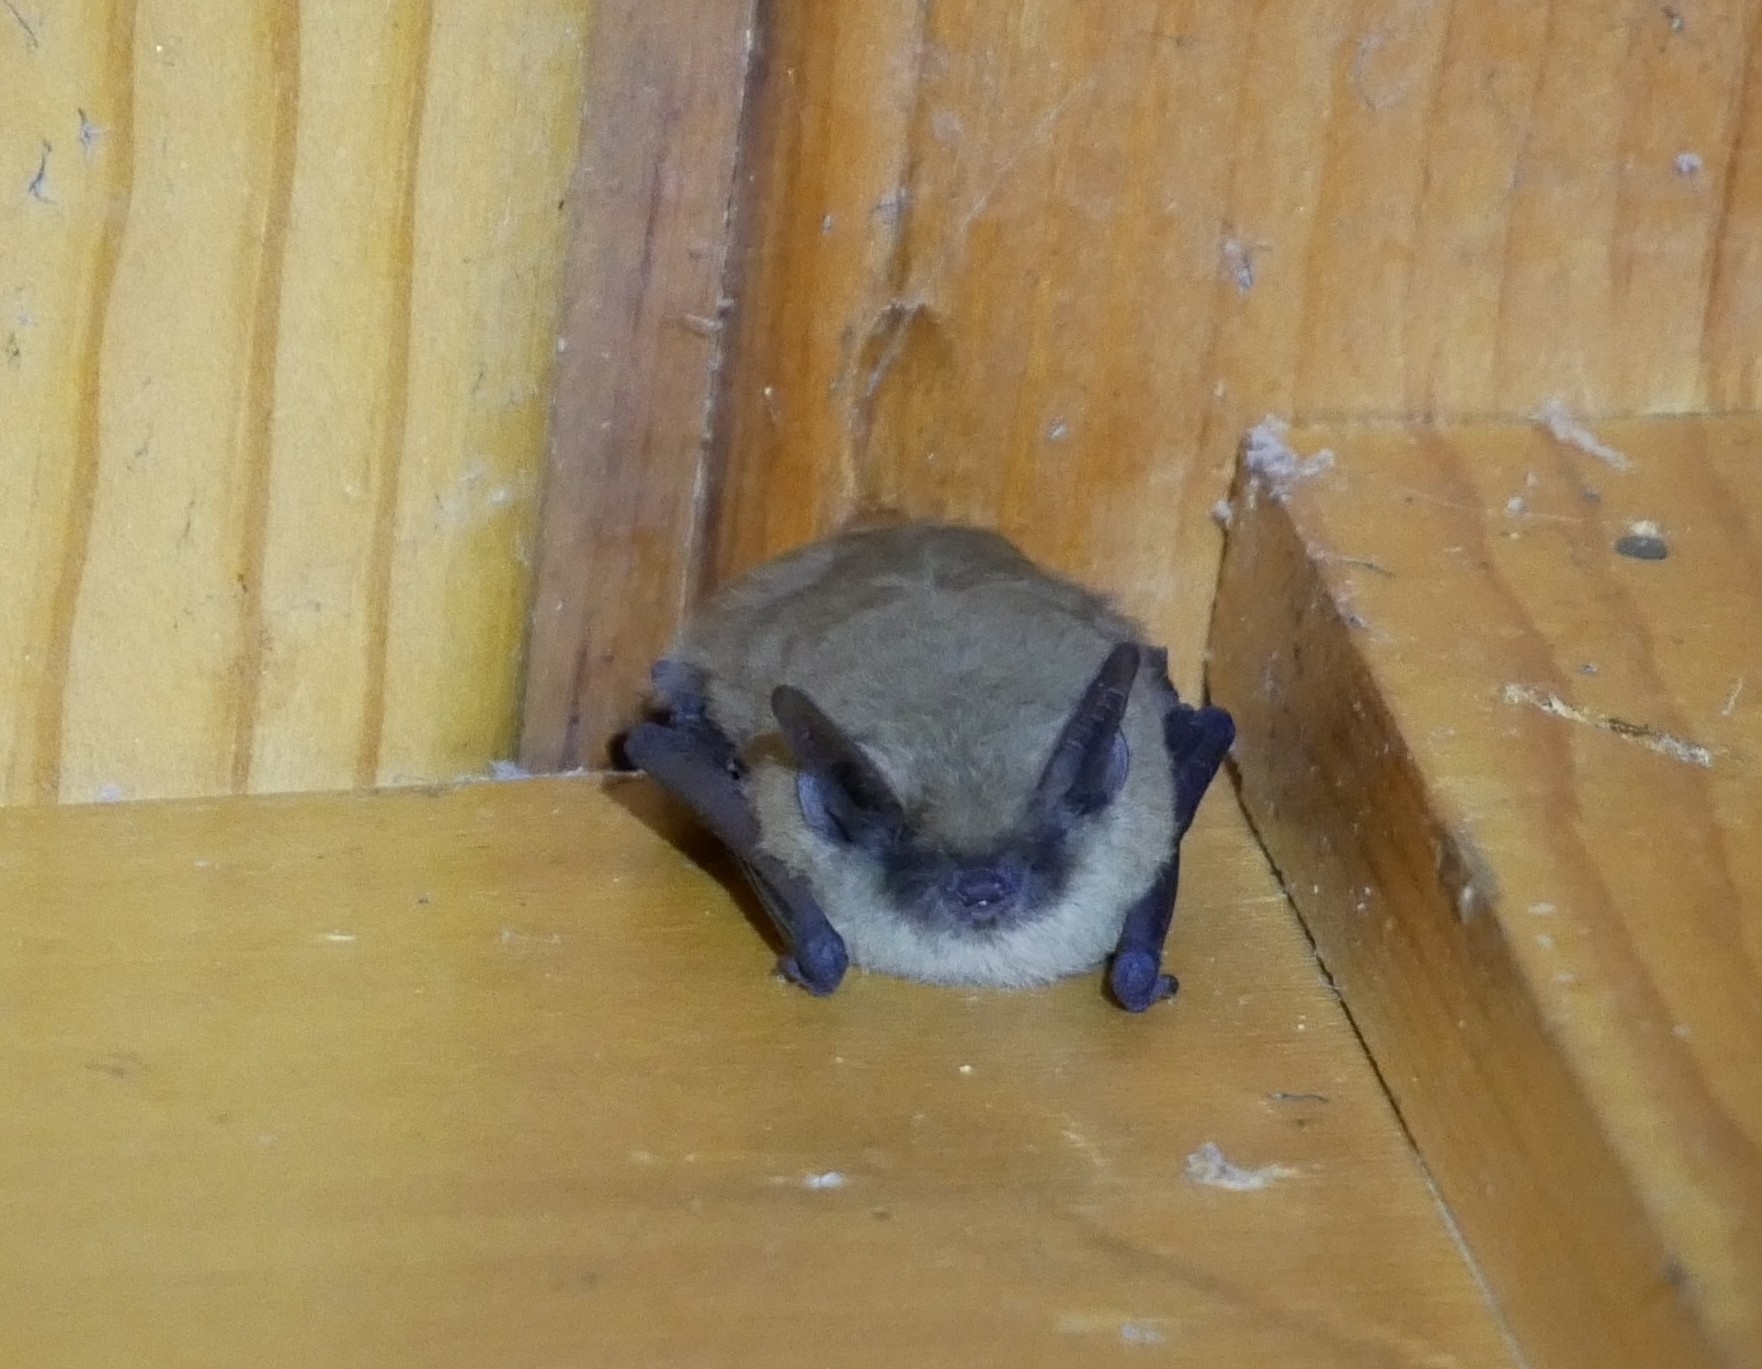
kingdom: Animalia
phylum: Chordata
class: Mammalia
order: Chiroptera
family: Vespertilionidae
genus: Myotis
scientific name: Myotis californicus
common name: Californian myotis
